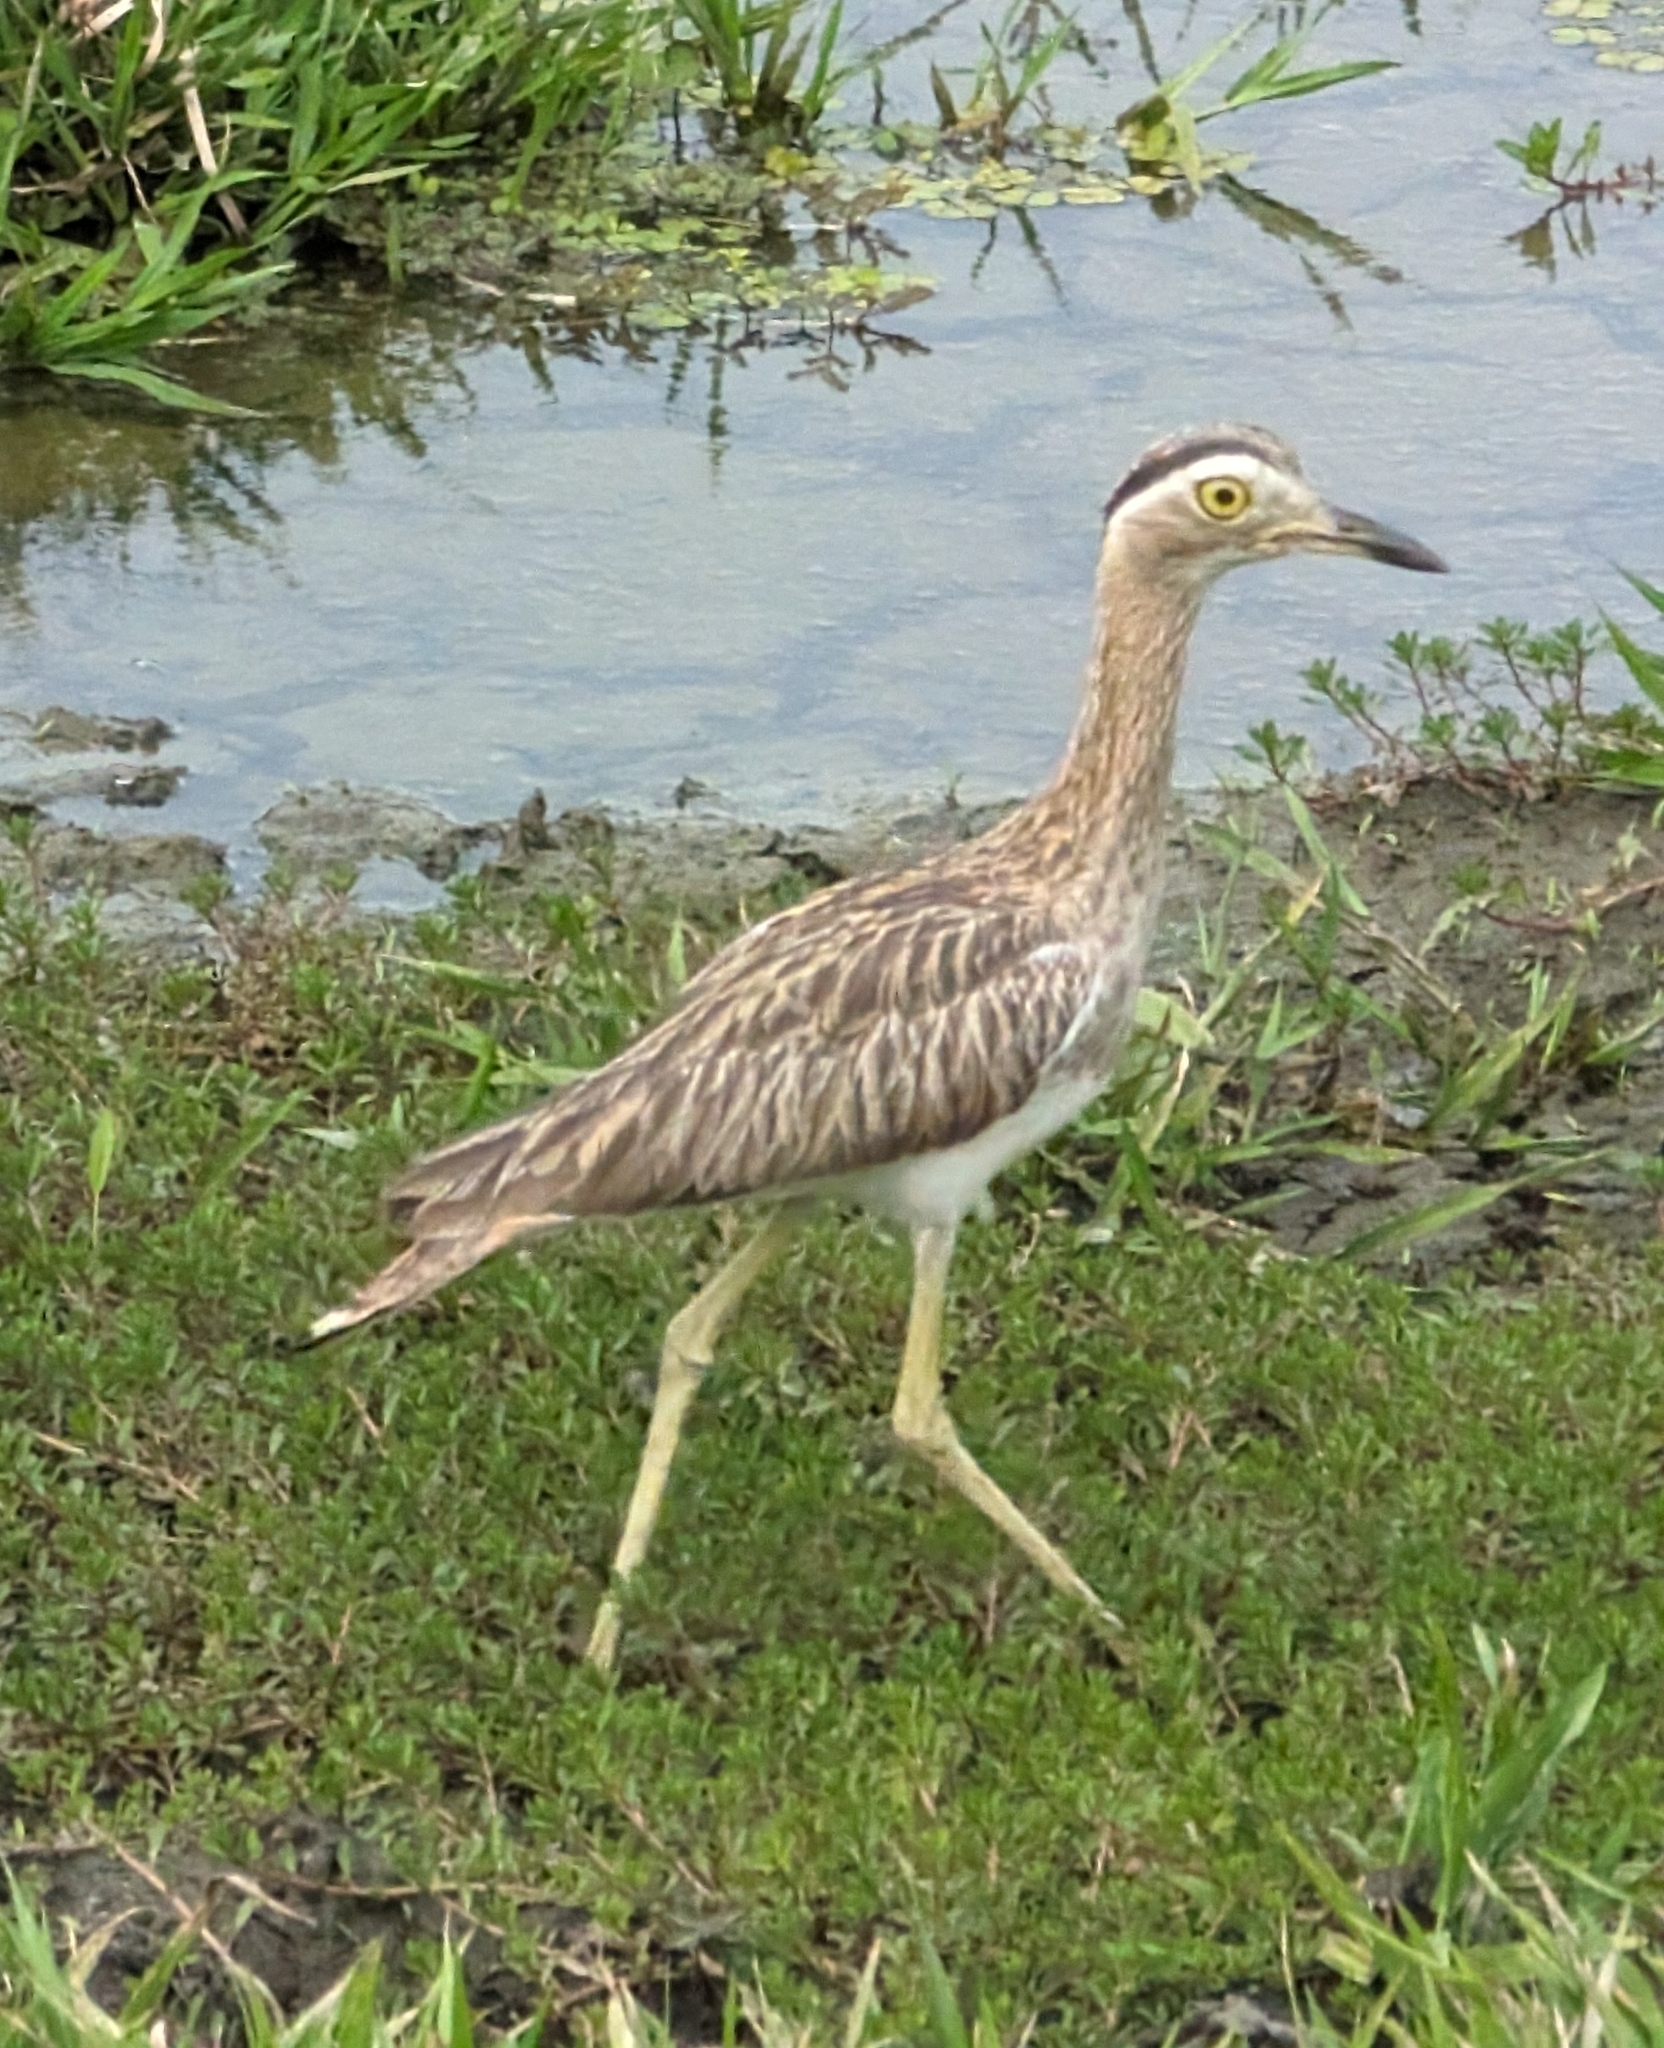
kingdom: Animalia
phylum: Chordata
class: Aves
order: Charadriiformes
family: Burhinidae
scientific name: Burhinidae
